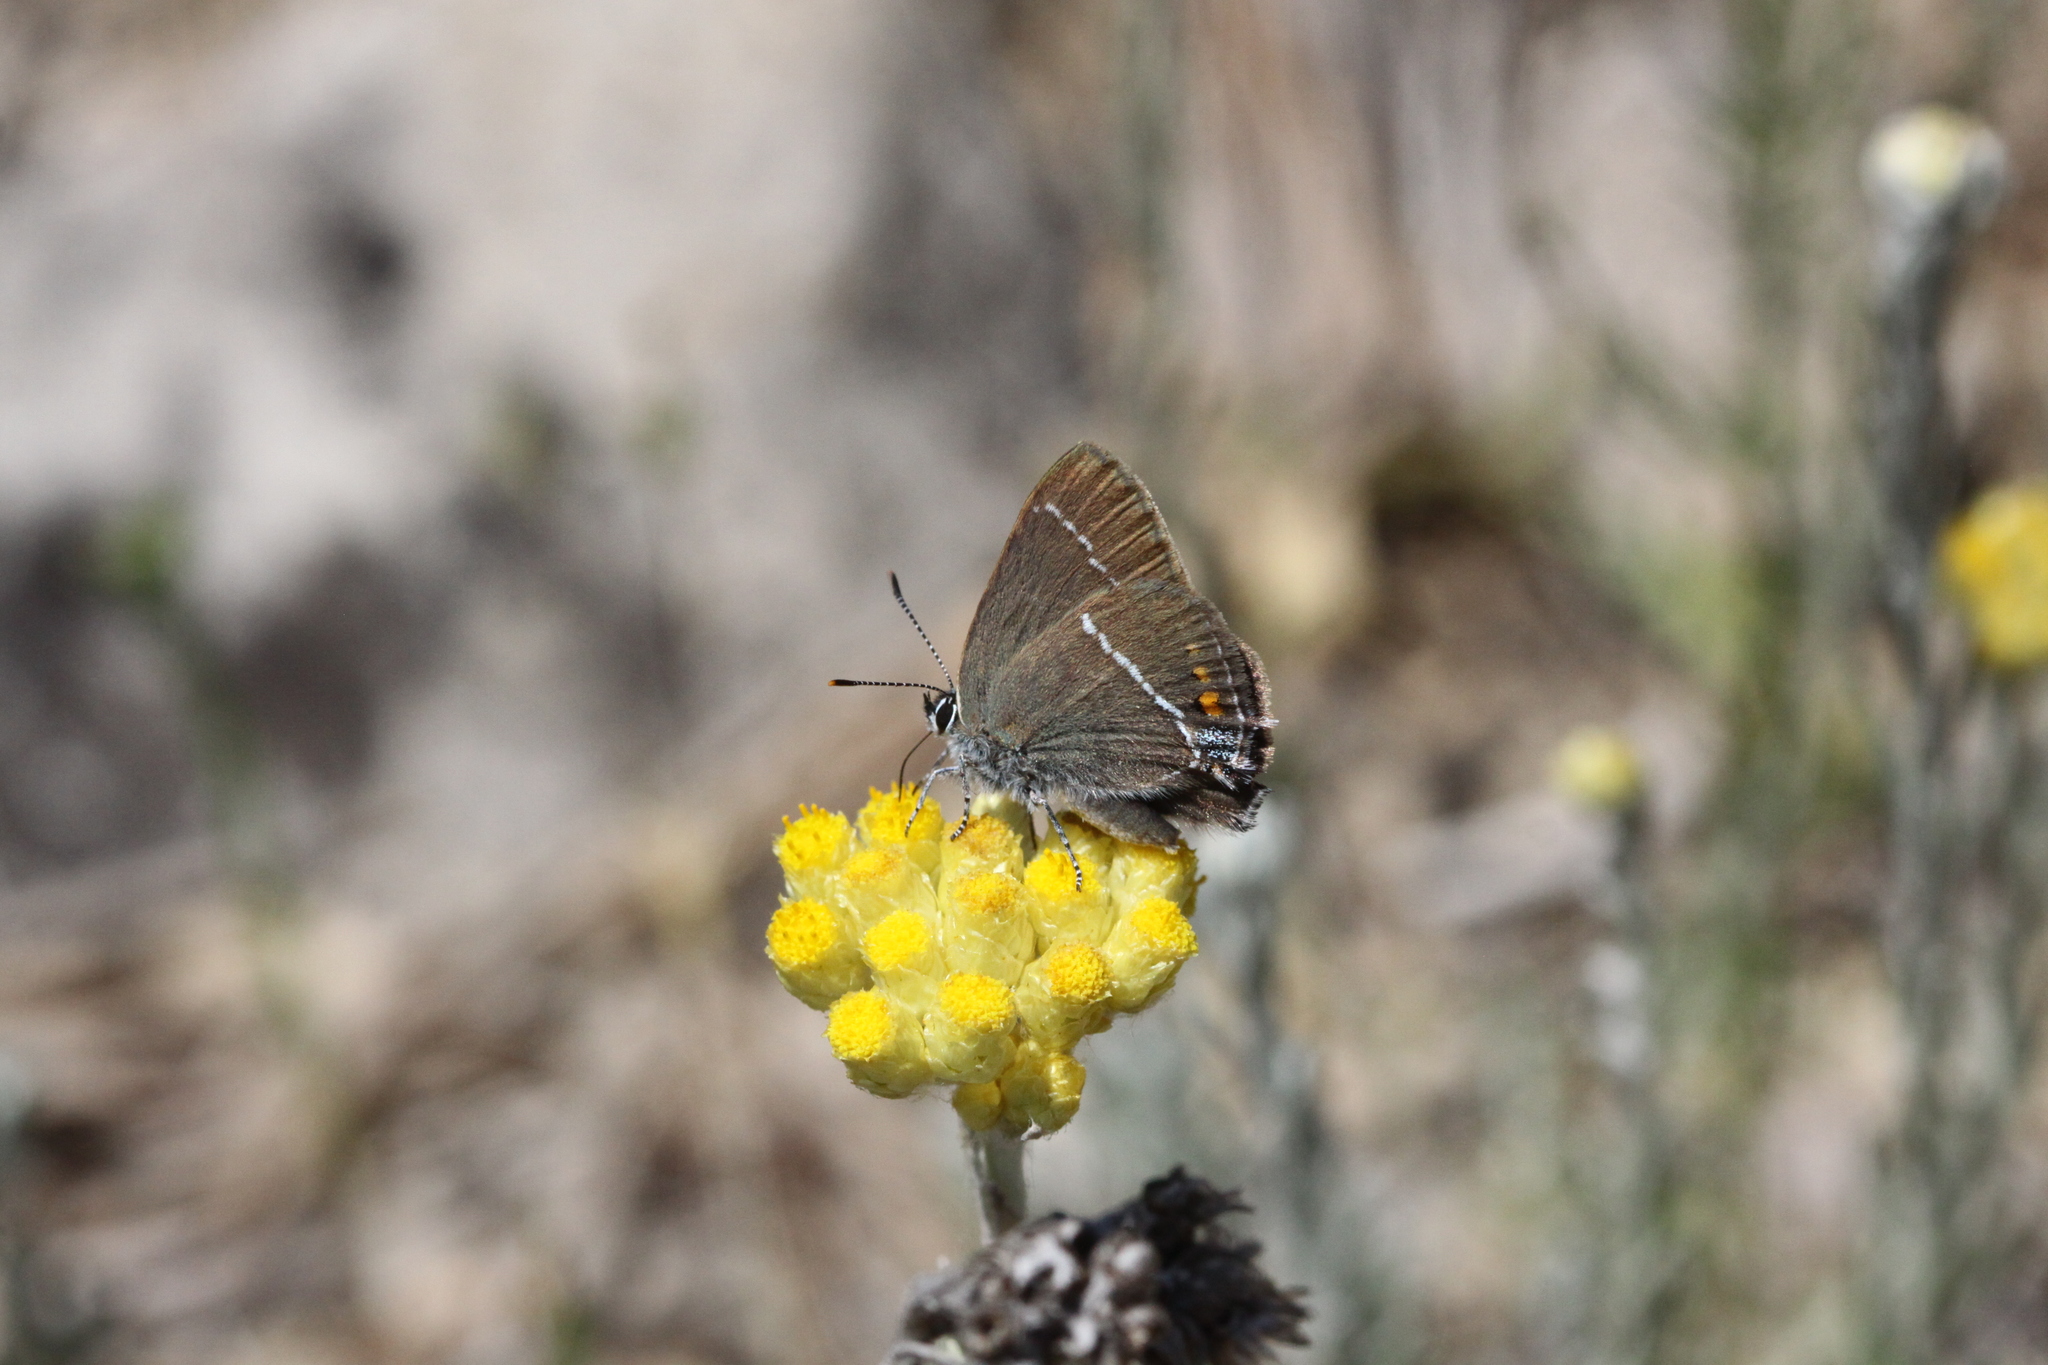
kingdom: Animalia
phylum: Arthropoda
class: Insecta
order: Lepidoptera
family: Lycaenidae
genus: Tuttiola
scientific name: Tuttiola spini
